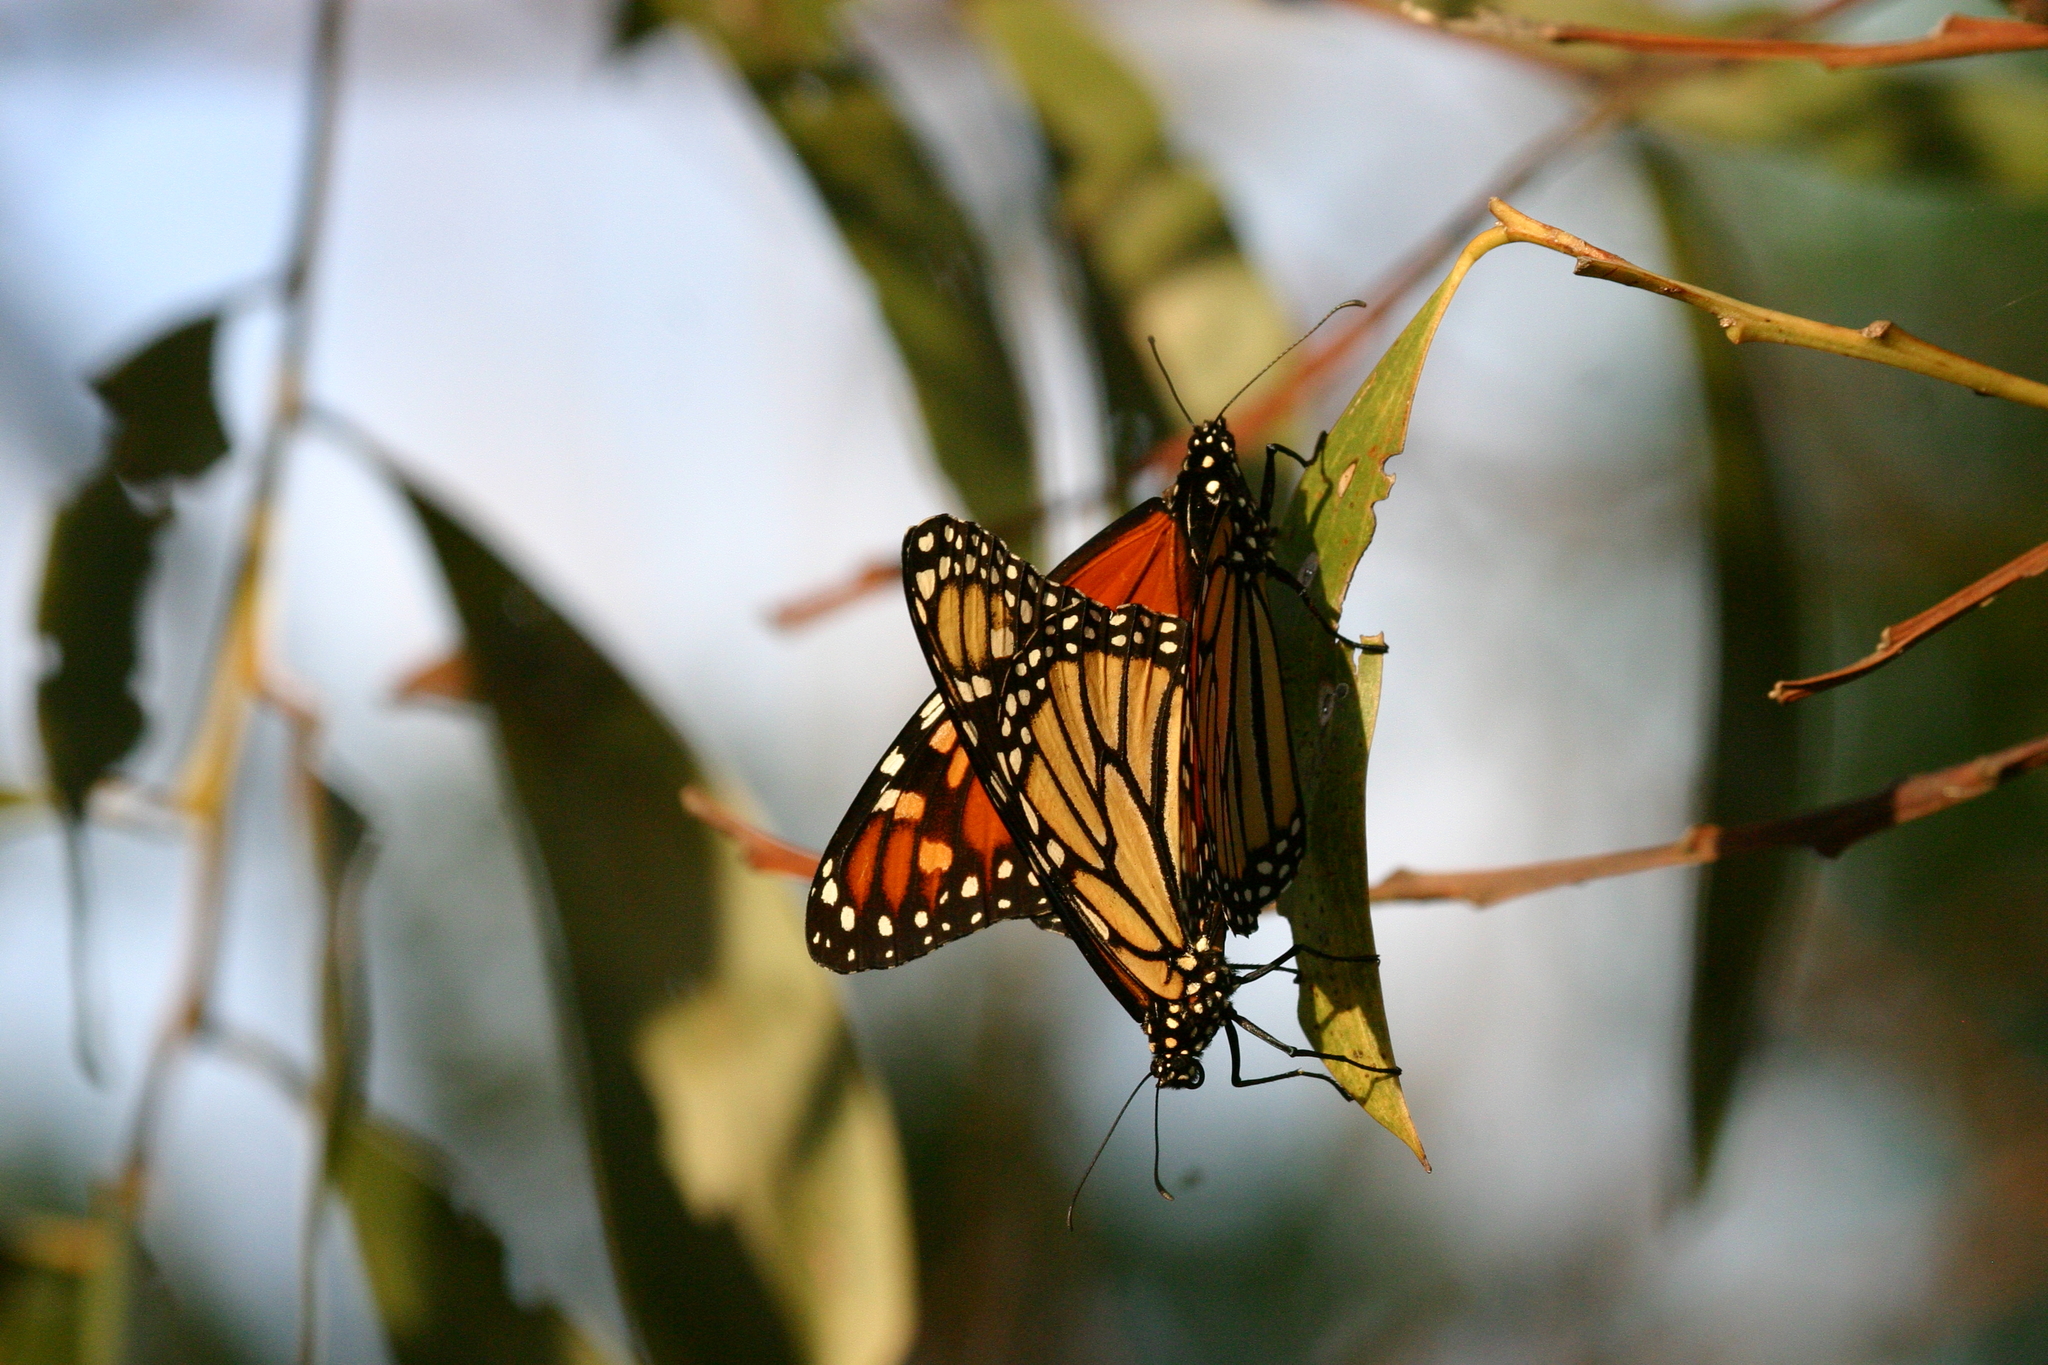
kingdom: Animalia
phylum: Arthropoda
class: Insecta
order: Lepidoptera
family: Nymphalidae
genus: Danaus
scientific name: Danaus plexippus
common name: Monarch
